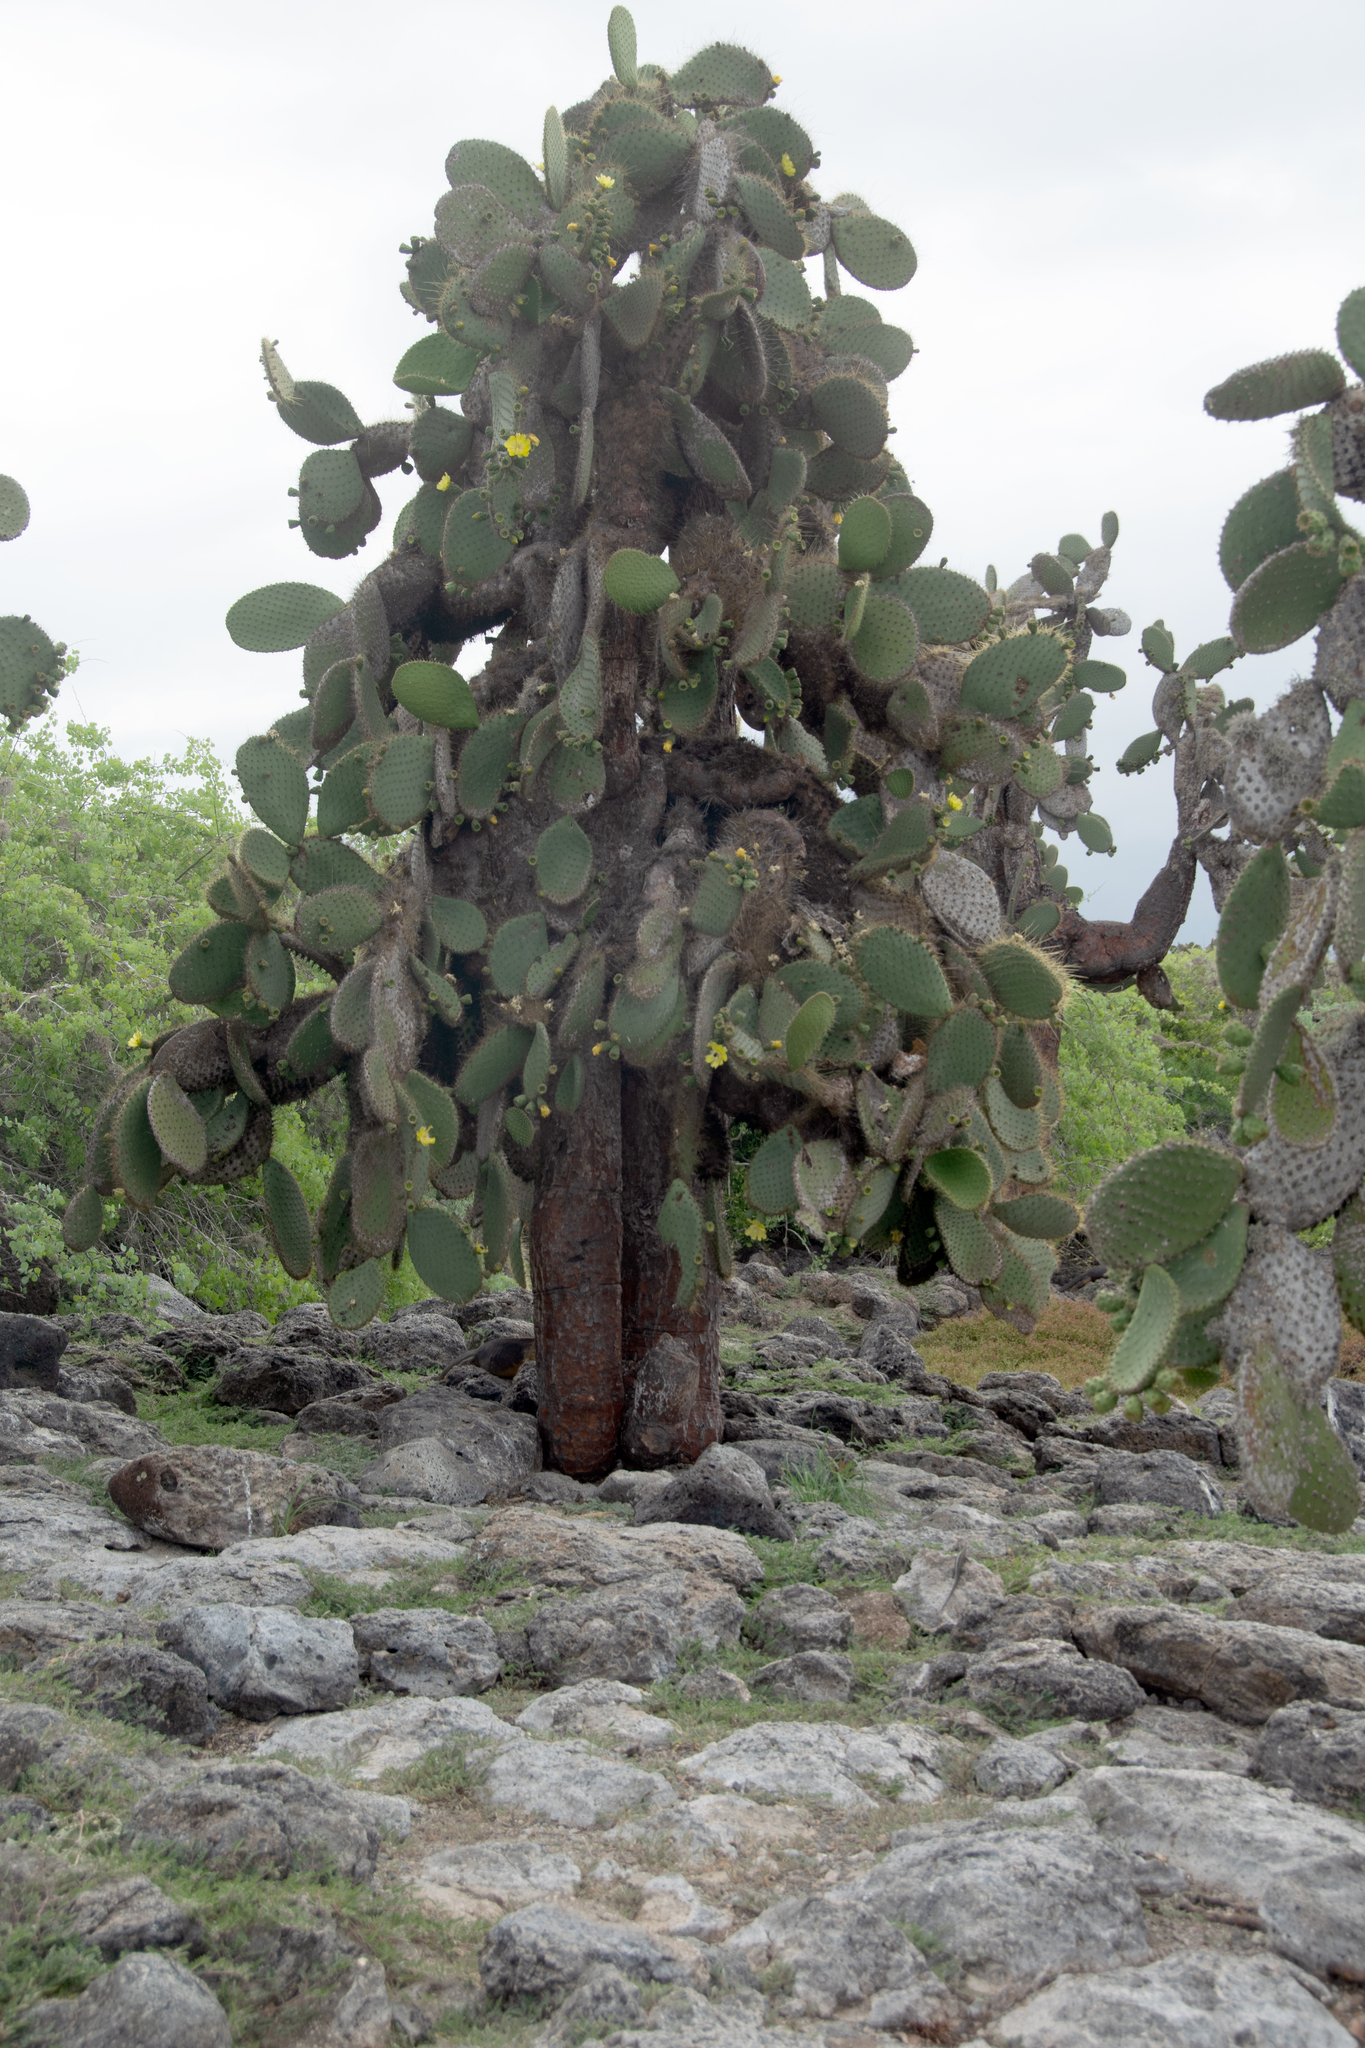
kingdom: Plantae
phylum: Tracheophyta
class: Magnoliopsida
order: Caryophyllales
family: Cactaceae
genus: Opuntia
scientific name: Opuntia galapageia
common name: Galápagos prickly pear
